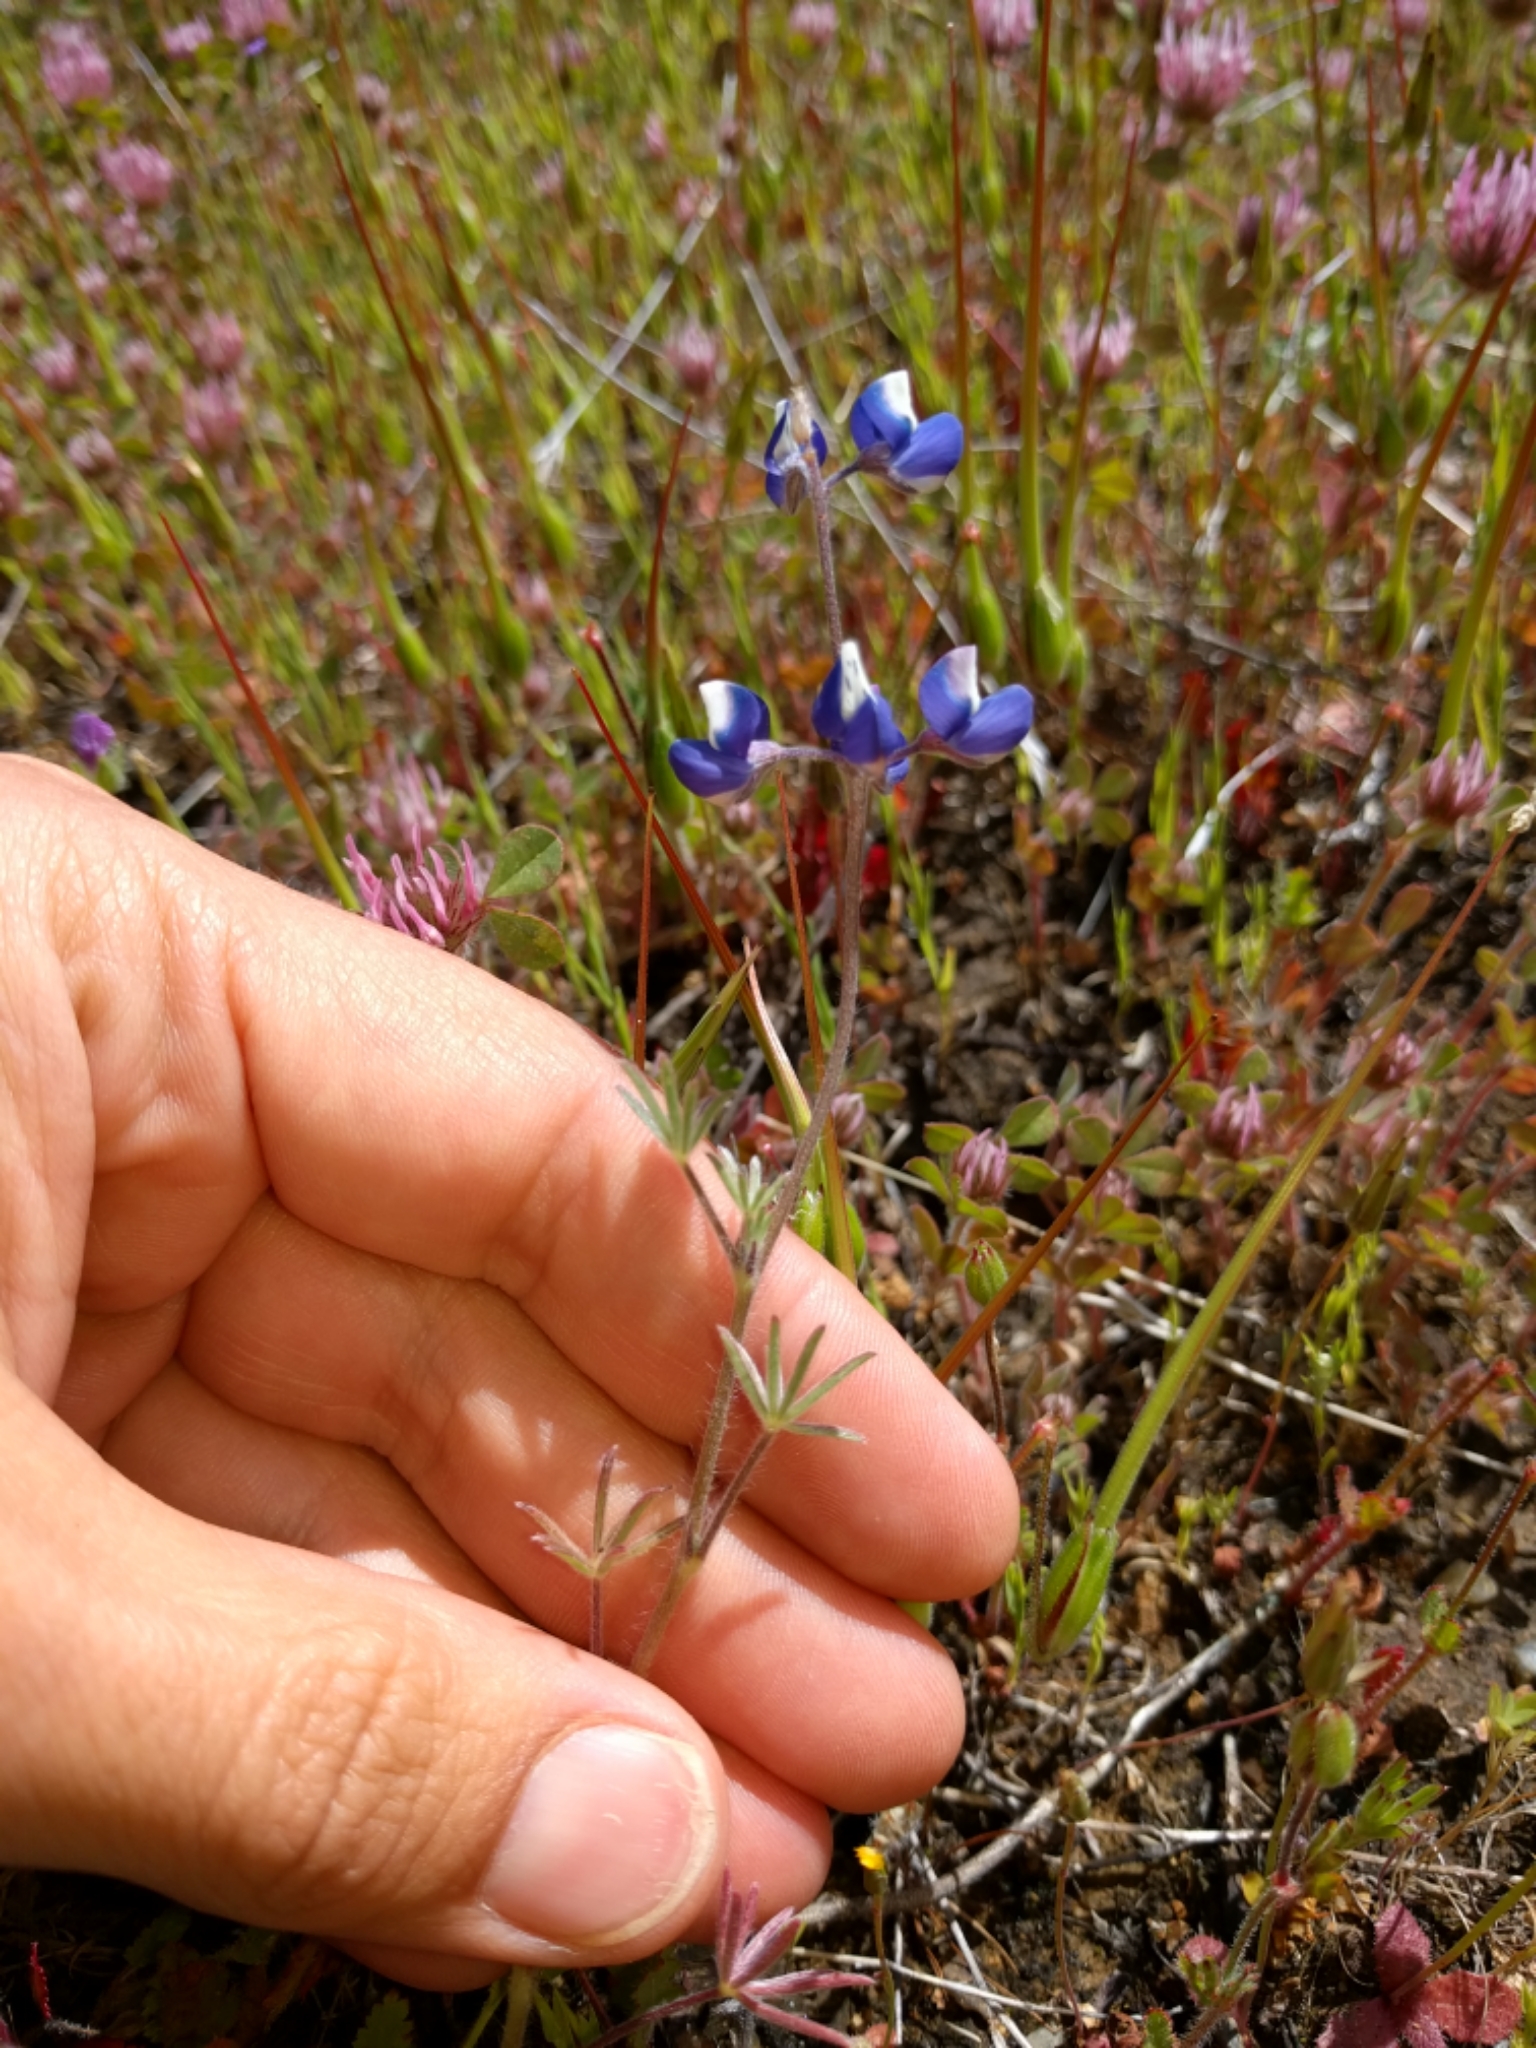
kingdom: Plantae
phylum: Tracheophyta
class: Magnoliopsida
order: Fabales
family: Fabaceae
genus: Lupinus
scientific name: Lupinus bicolor
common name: Miniature lupine
